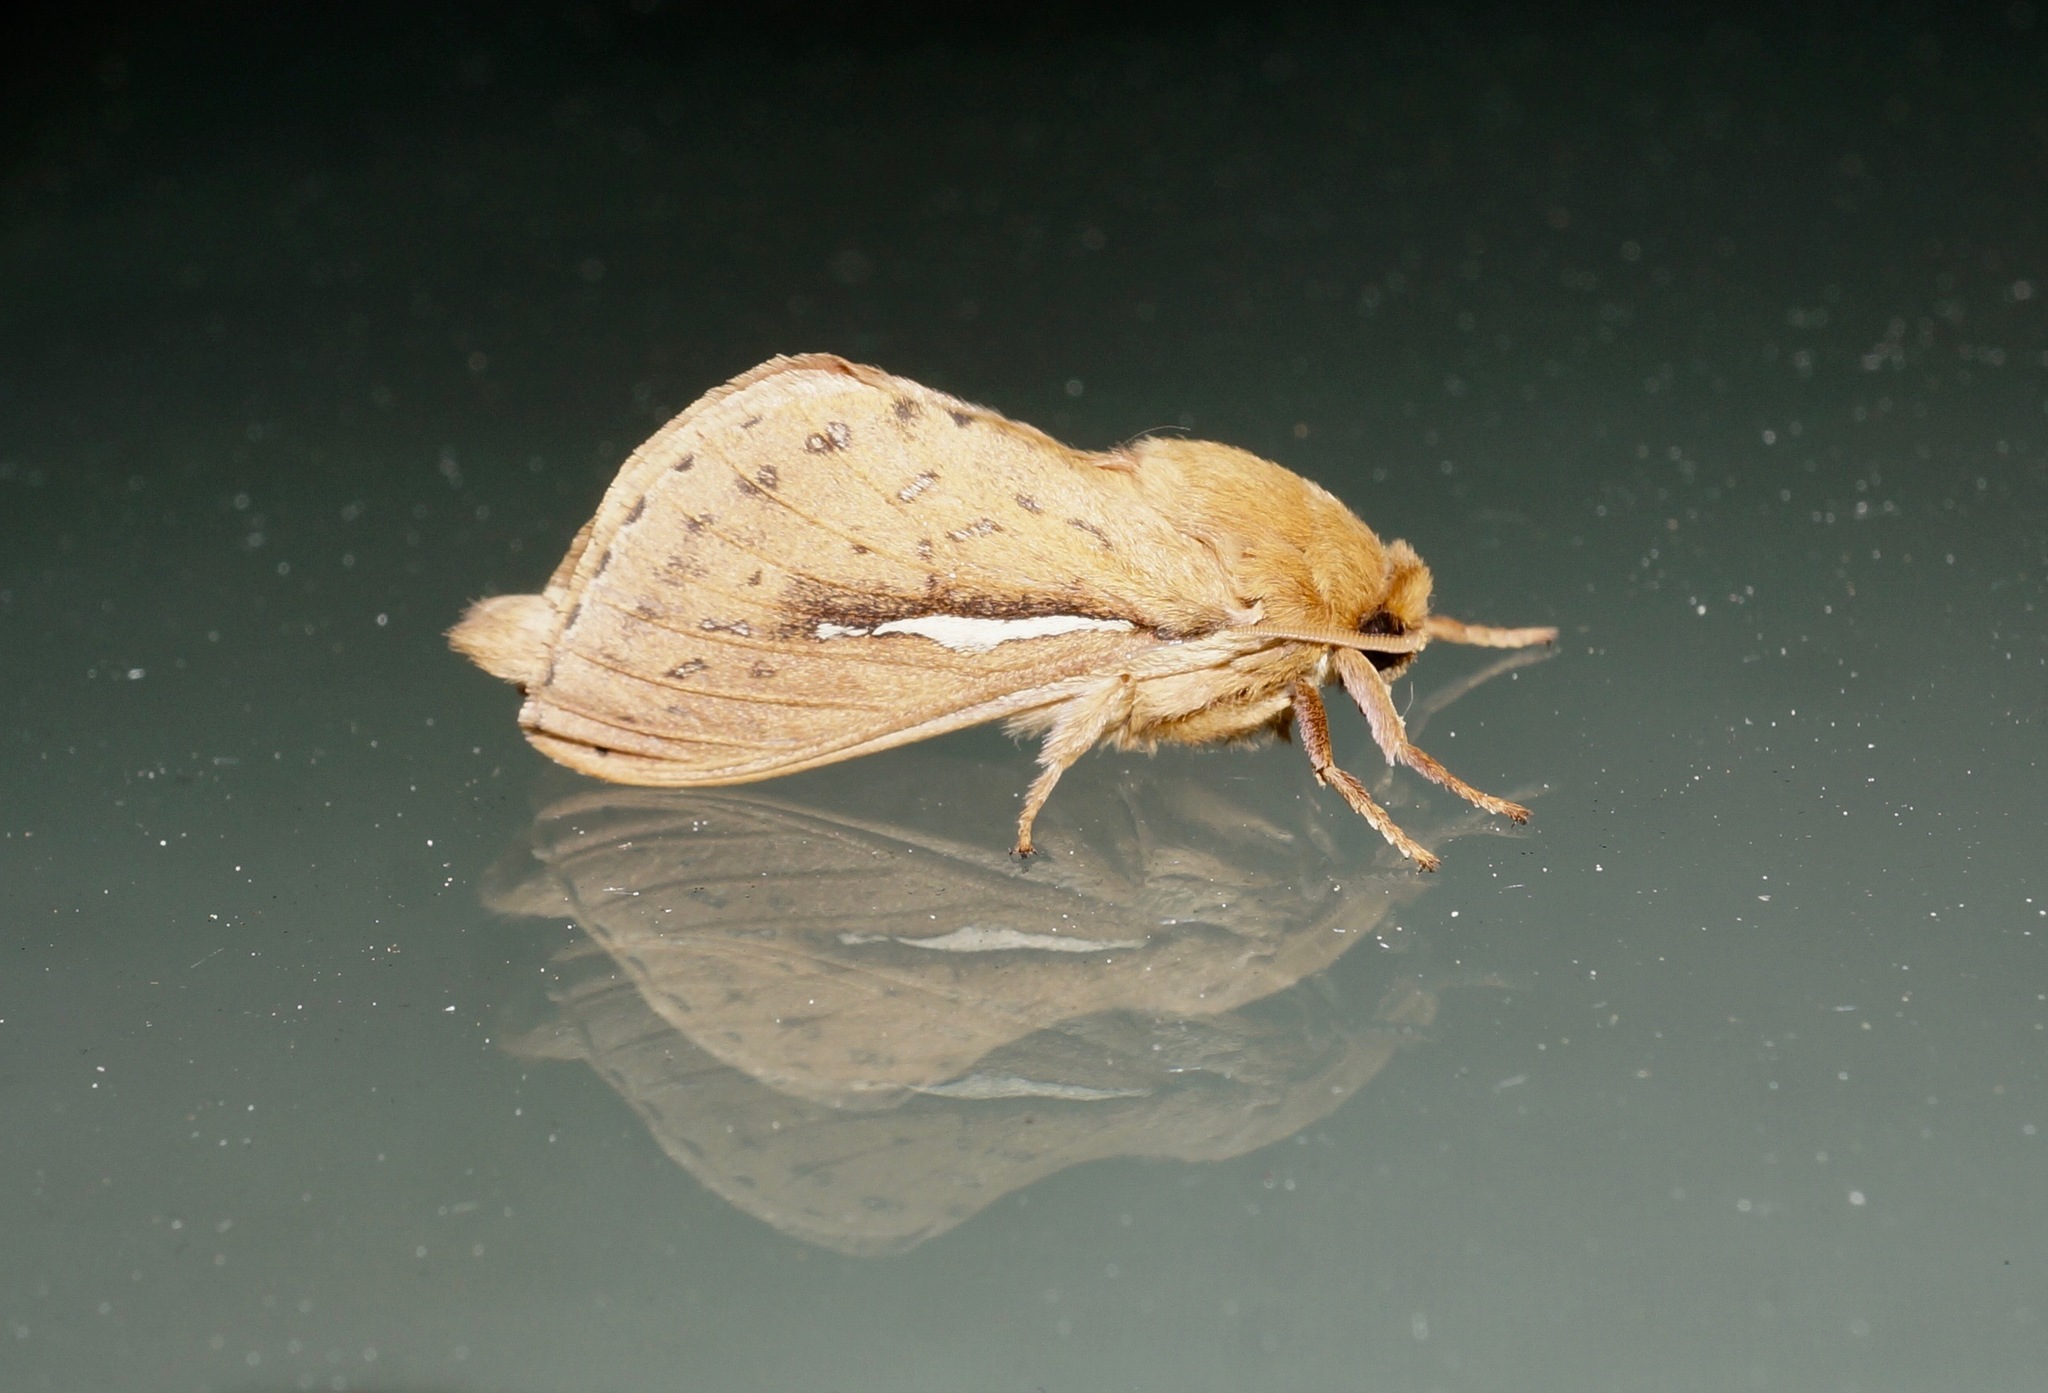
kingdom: Animalia
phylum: Arthropoda
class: Insecta
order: Lepidoptera
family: Hepialidae
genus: Wiseana
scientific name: Wiseana umbraculatus
